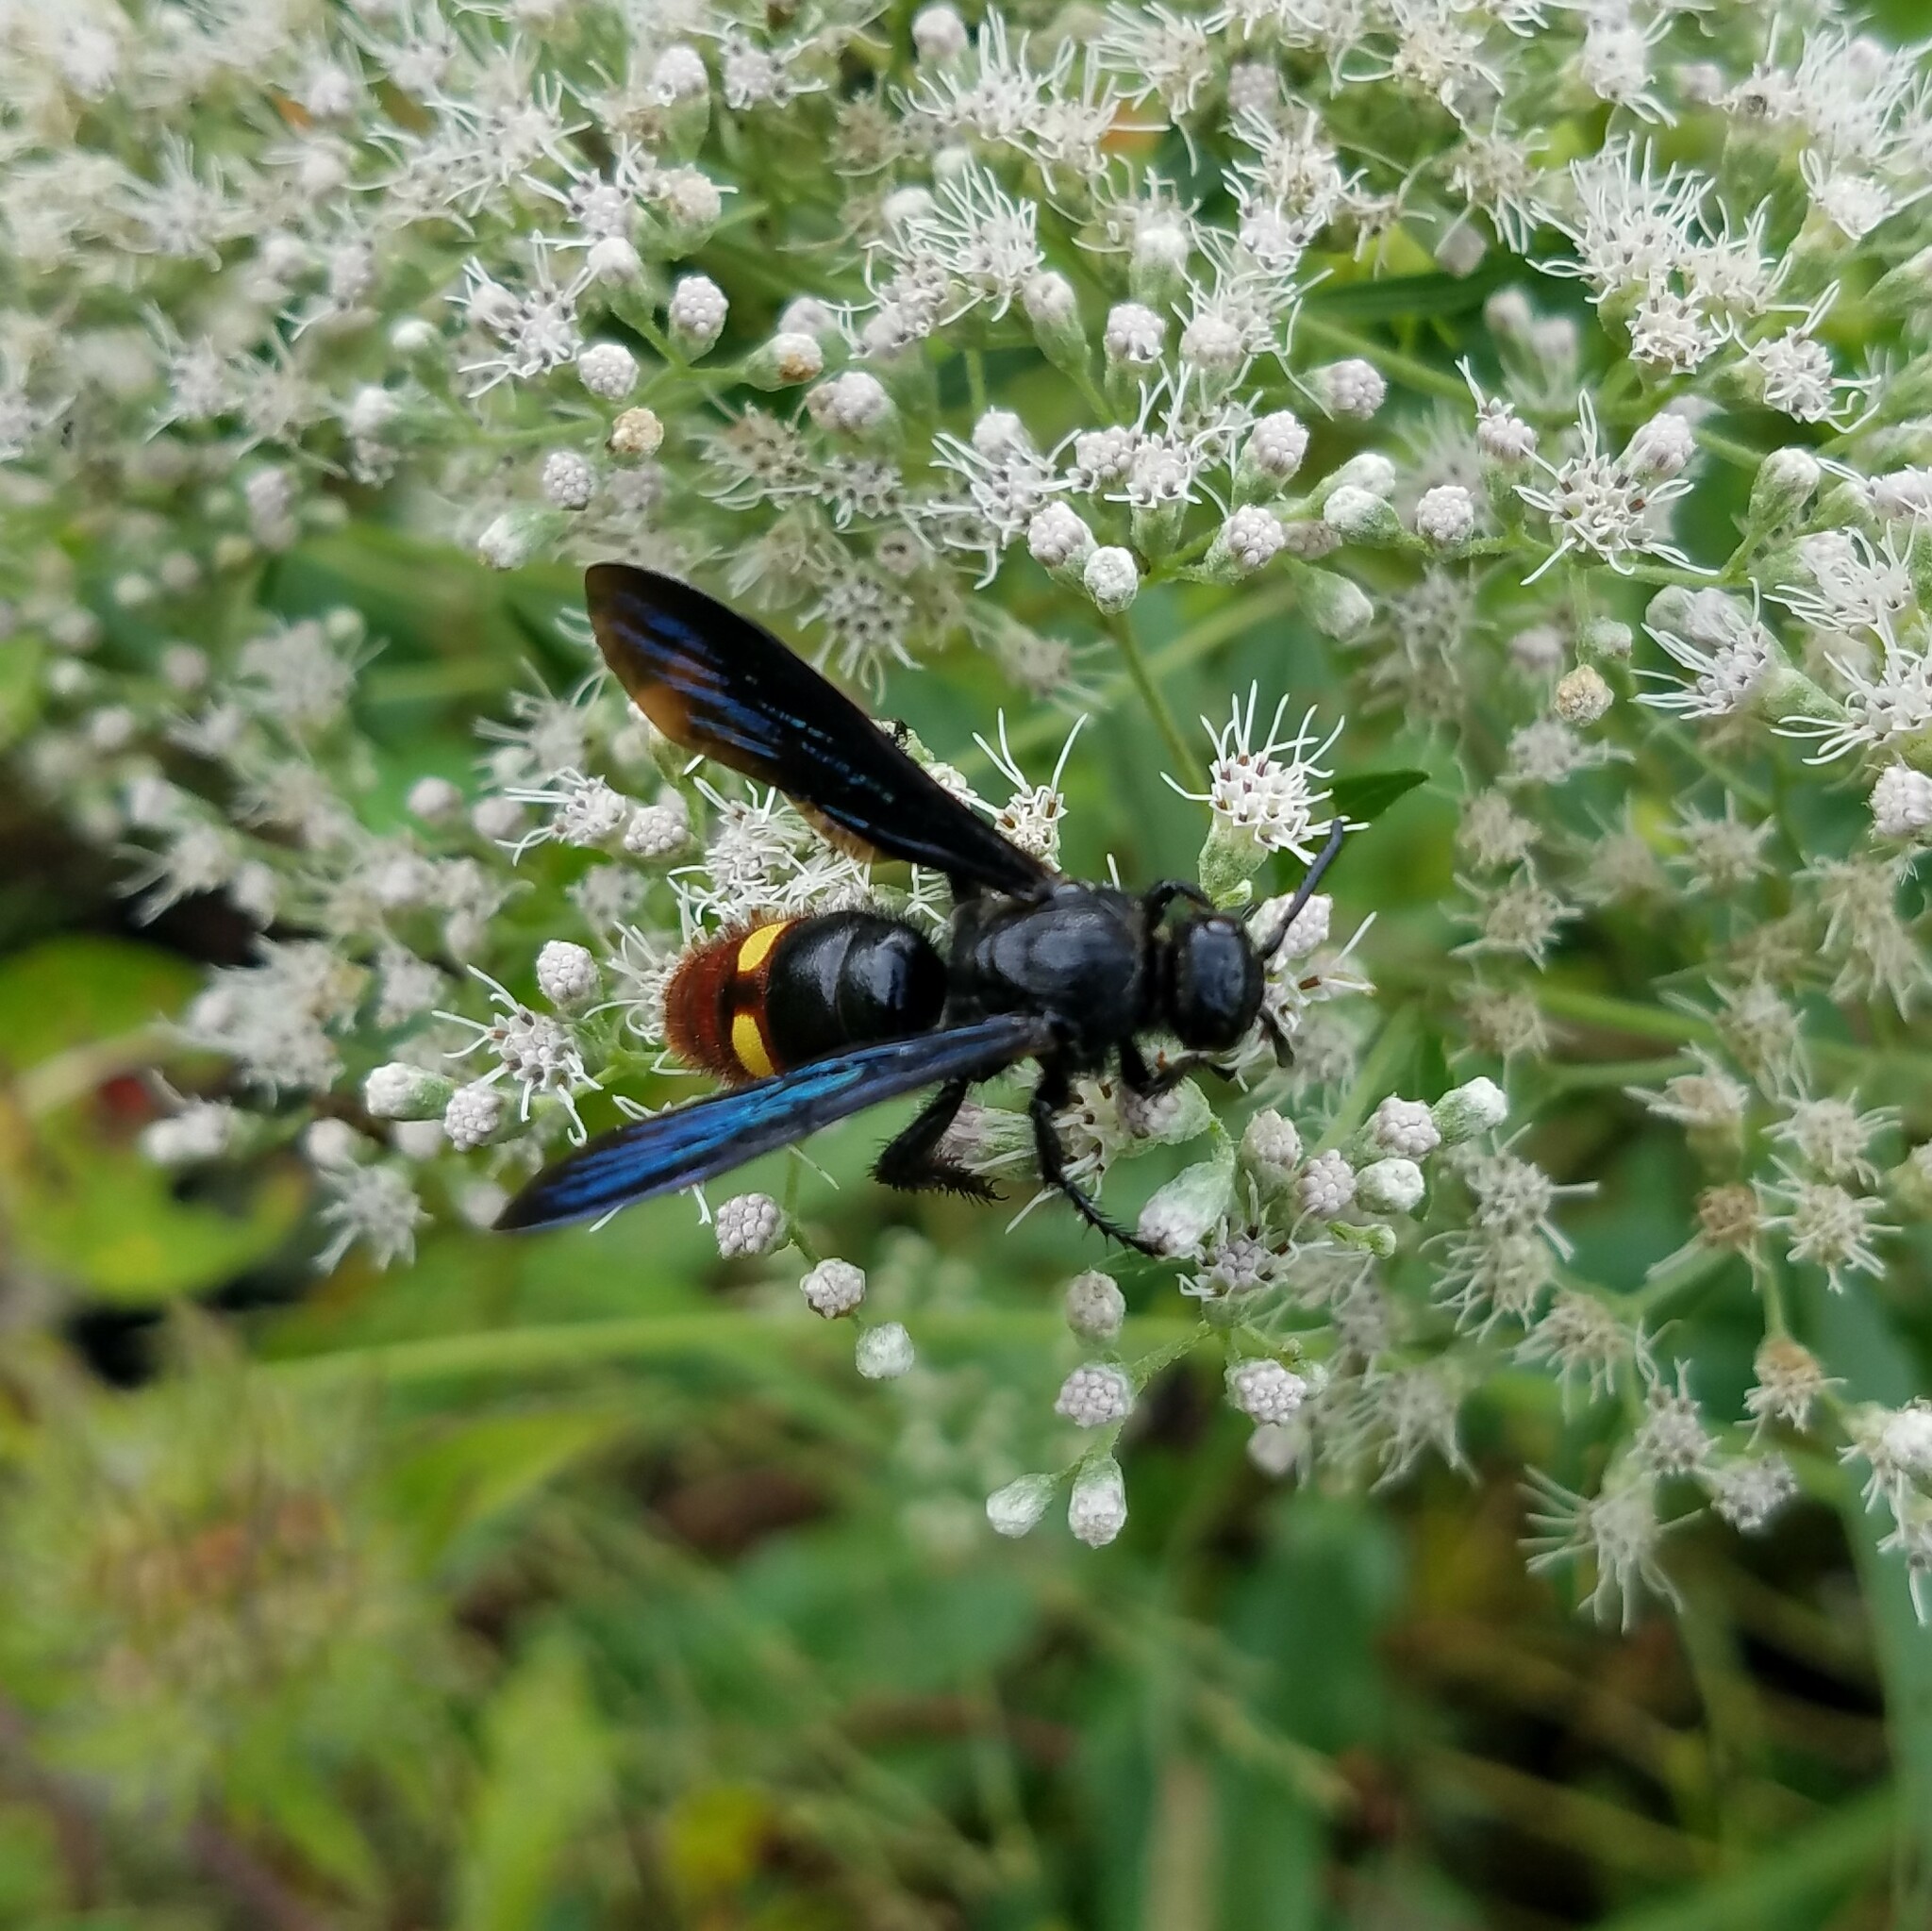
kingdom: Animalia
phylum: Arthropoda
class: Insecta
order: Hymenoptera
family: Scoliidae
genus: Scolia
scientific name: Scolia dubia
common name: Blue-winged scoliid wasp
